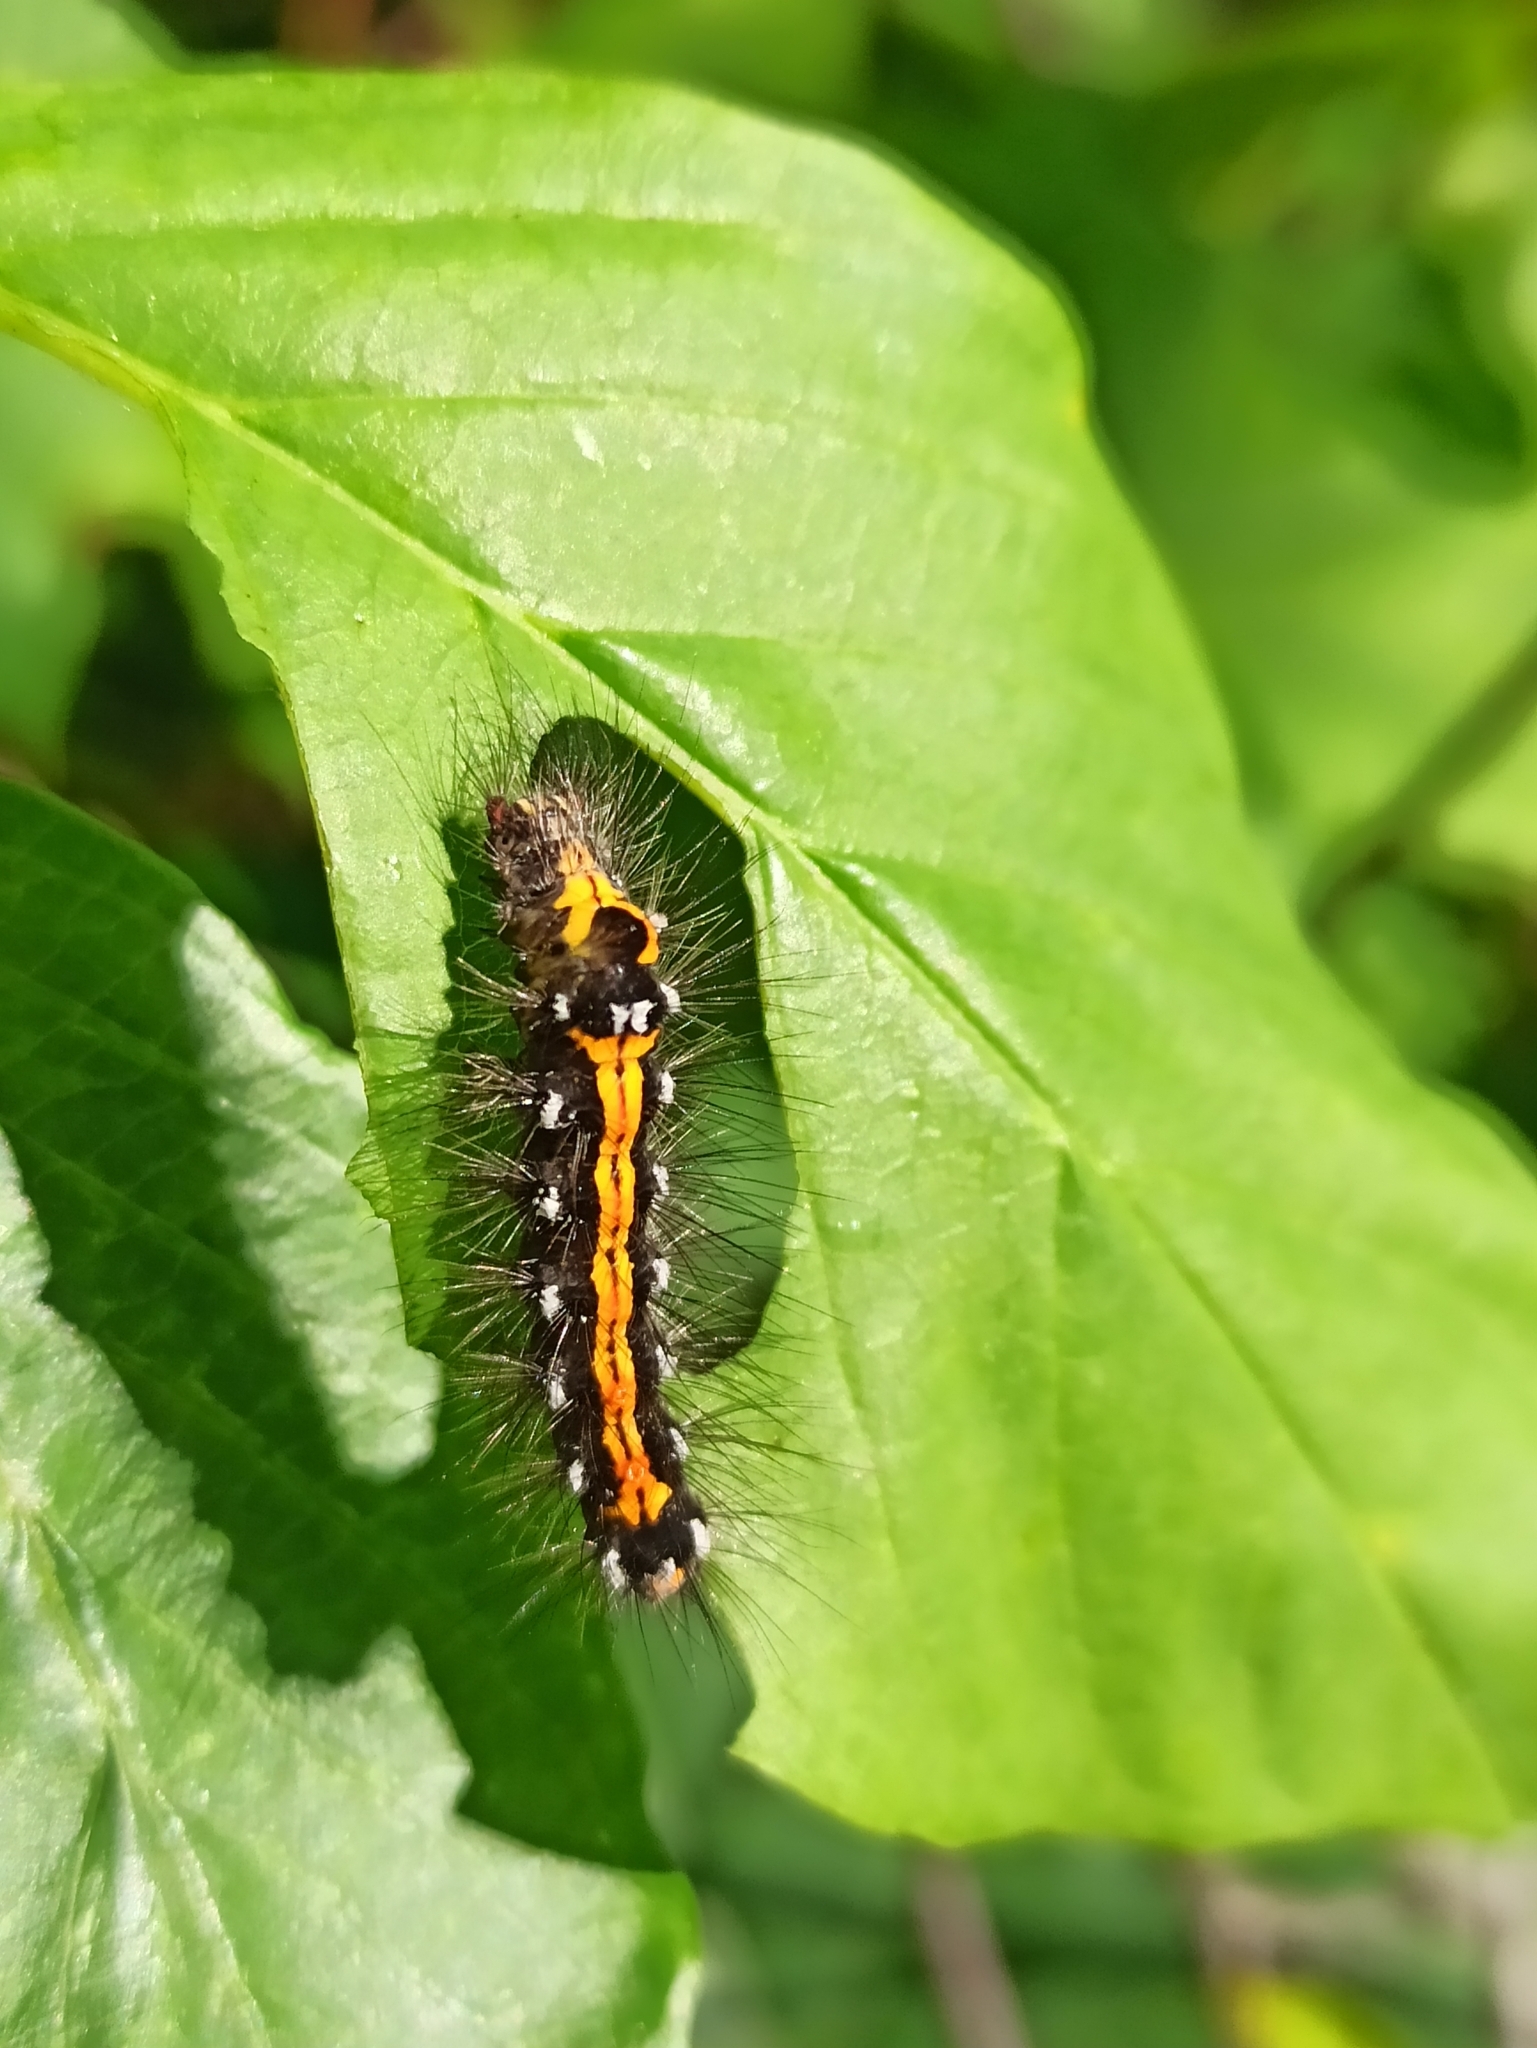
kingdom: Animalia
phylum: Arthropoda
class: Insecta
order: Lepidoptera
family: Erebidae
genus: Sphrageidus
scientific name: Sphrageidus similis
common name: Yellow-tail
